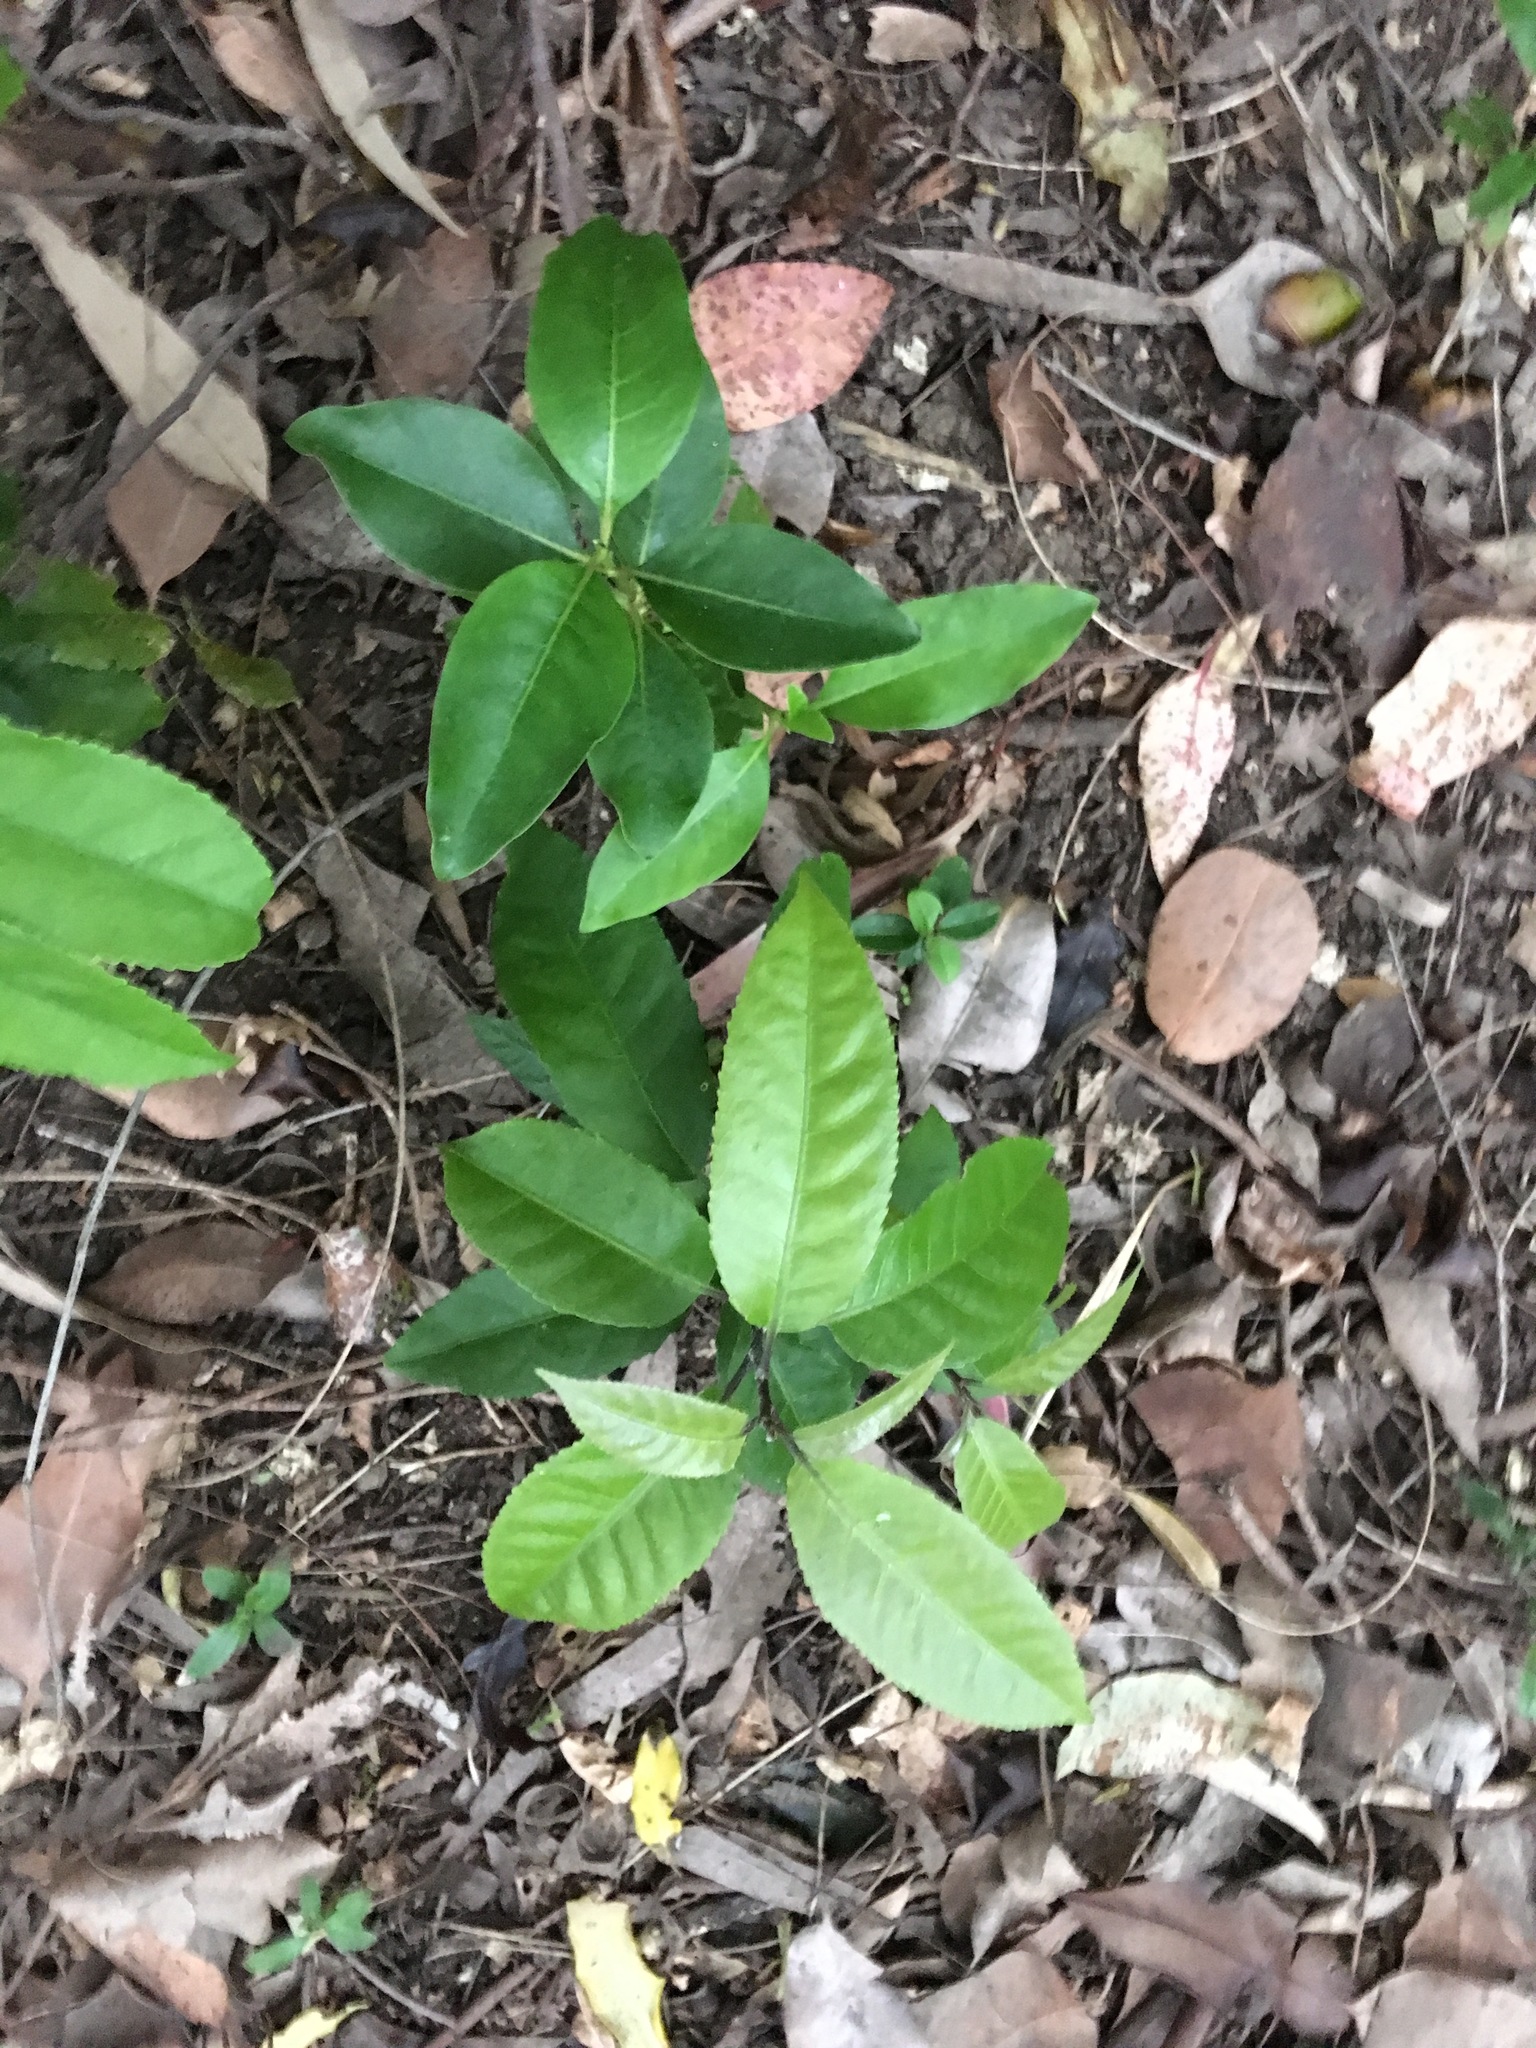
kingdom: Plantae
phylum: Tracheophyta
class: Magnoliopsida
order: Malpighiales
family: Violaceae
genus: Melicytus
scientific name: Melicytus ramiflorus
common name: Mahoe
